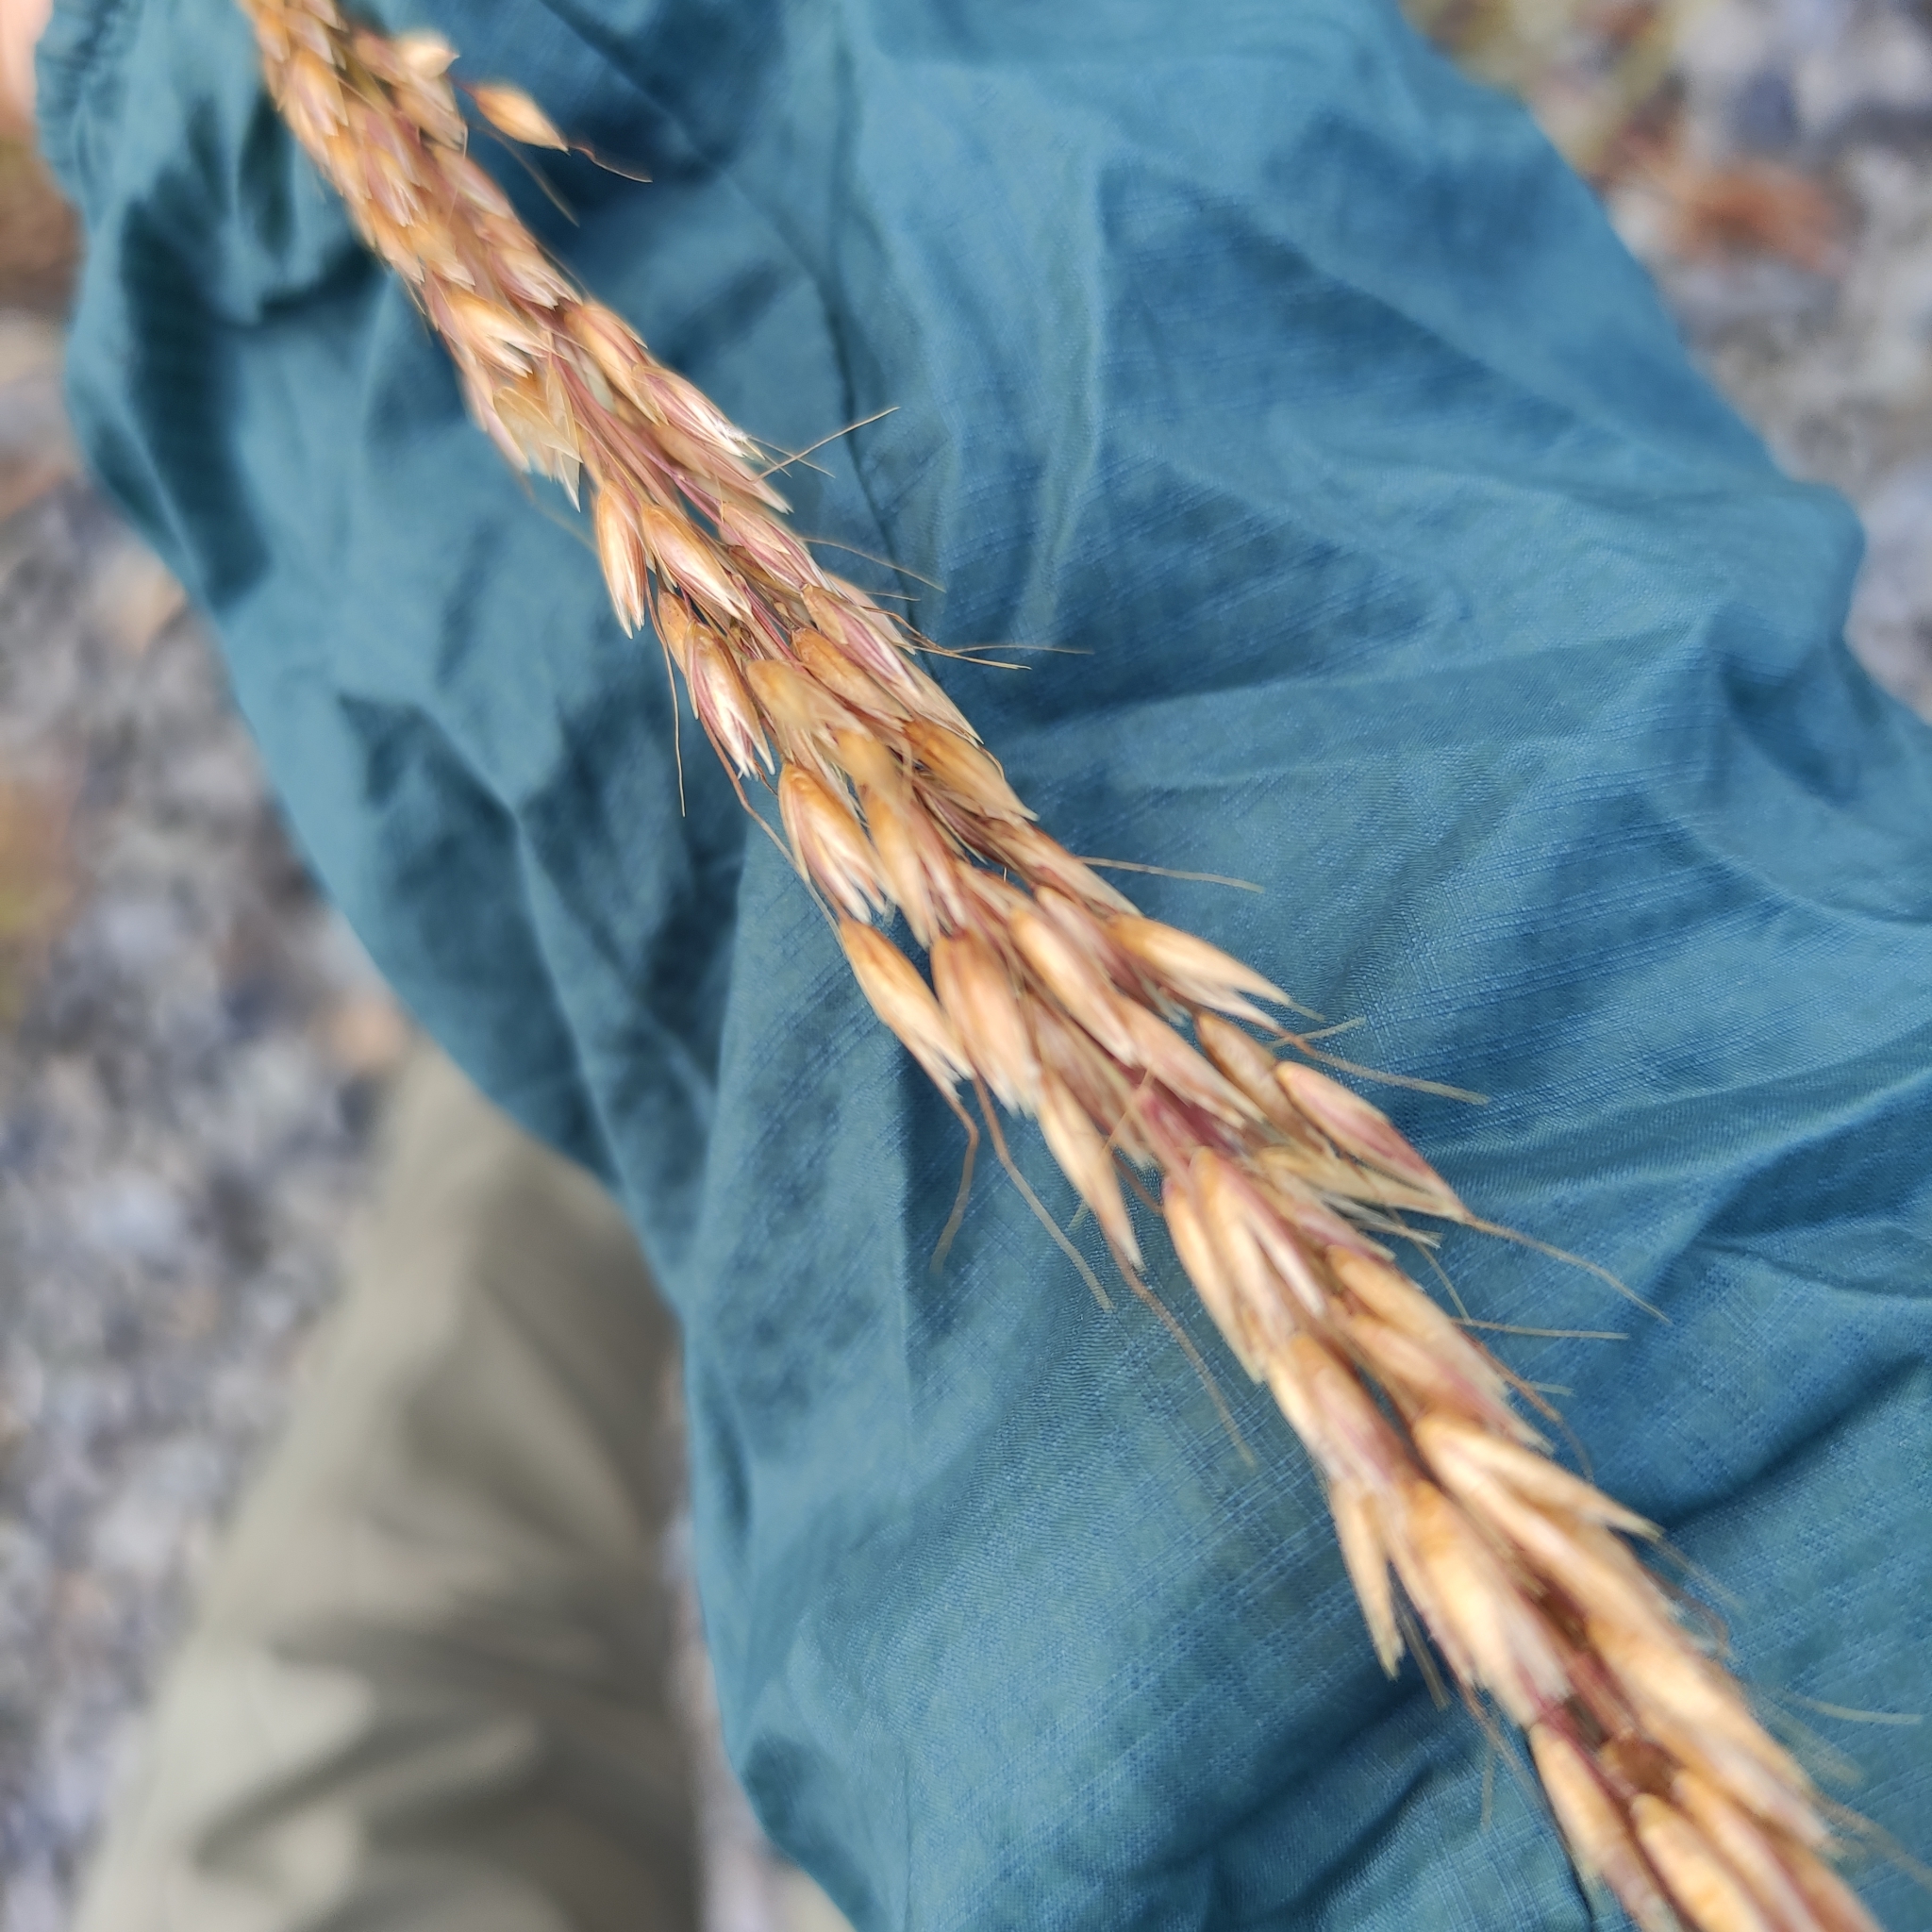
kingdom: Plantae
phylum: Tracheophyta
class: Liliopsida
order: Poales
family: Poaceae
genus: Arrhenatherum
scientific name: Arrhenatherum elatius
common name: Tall oatgrass
